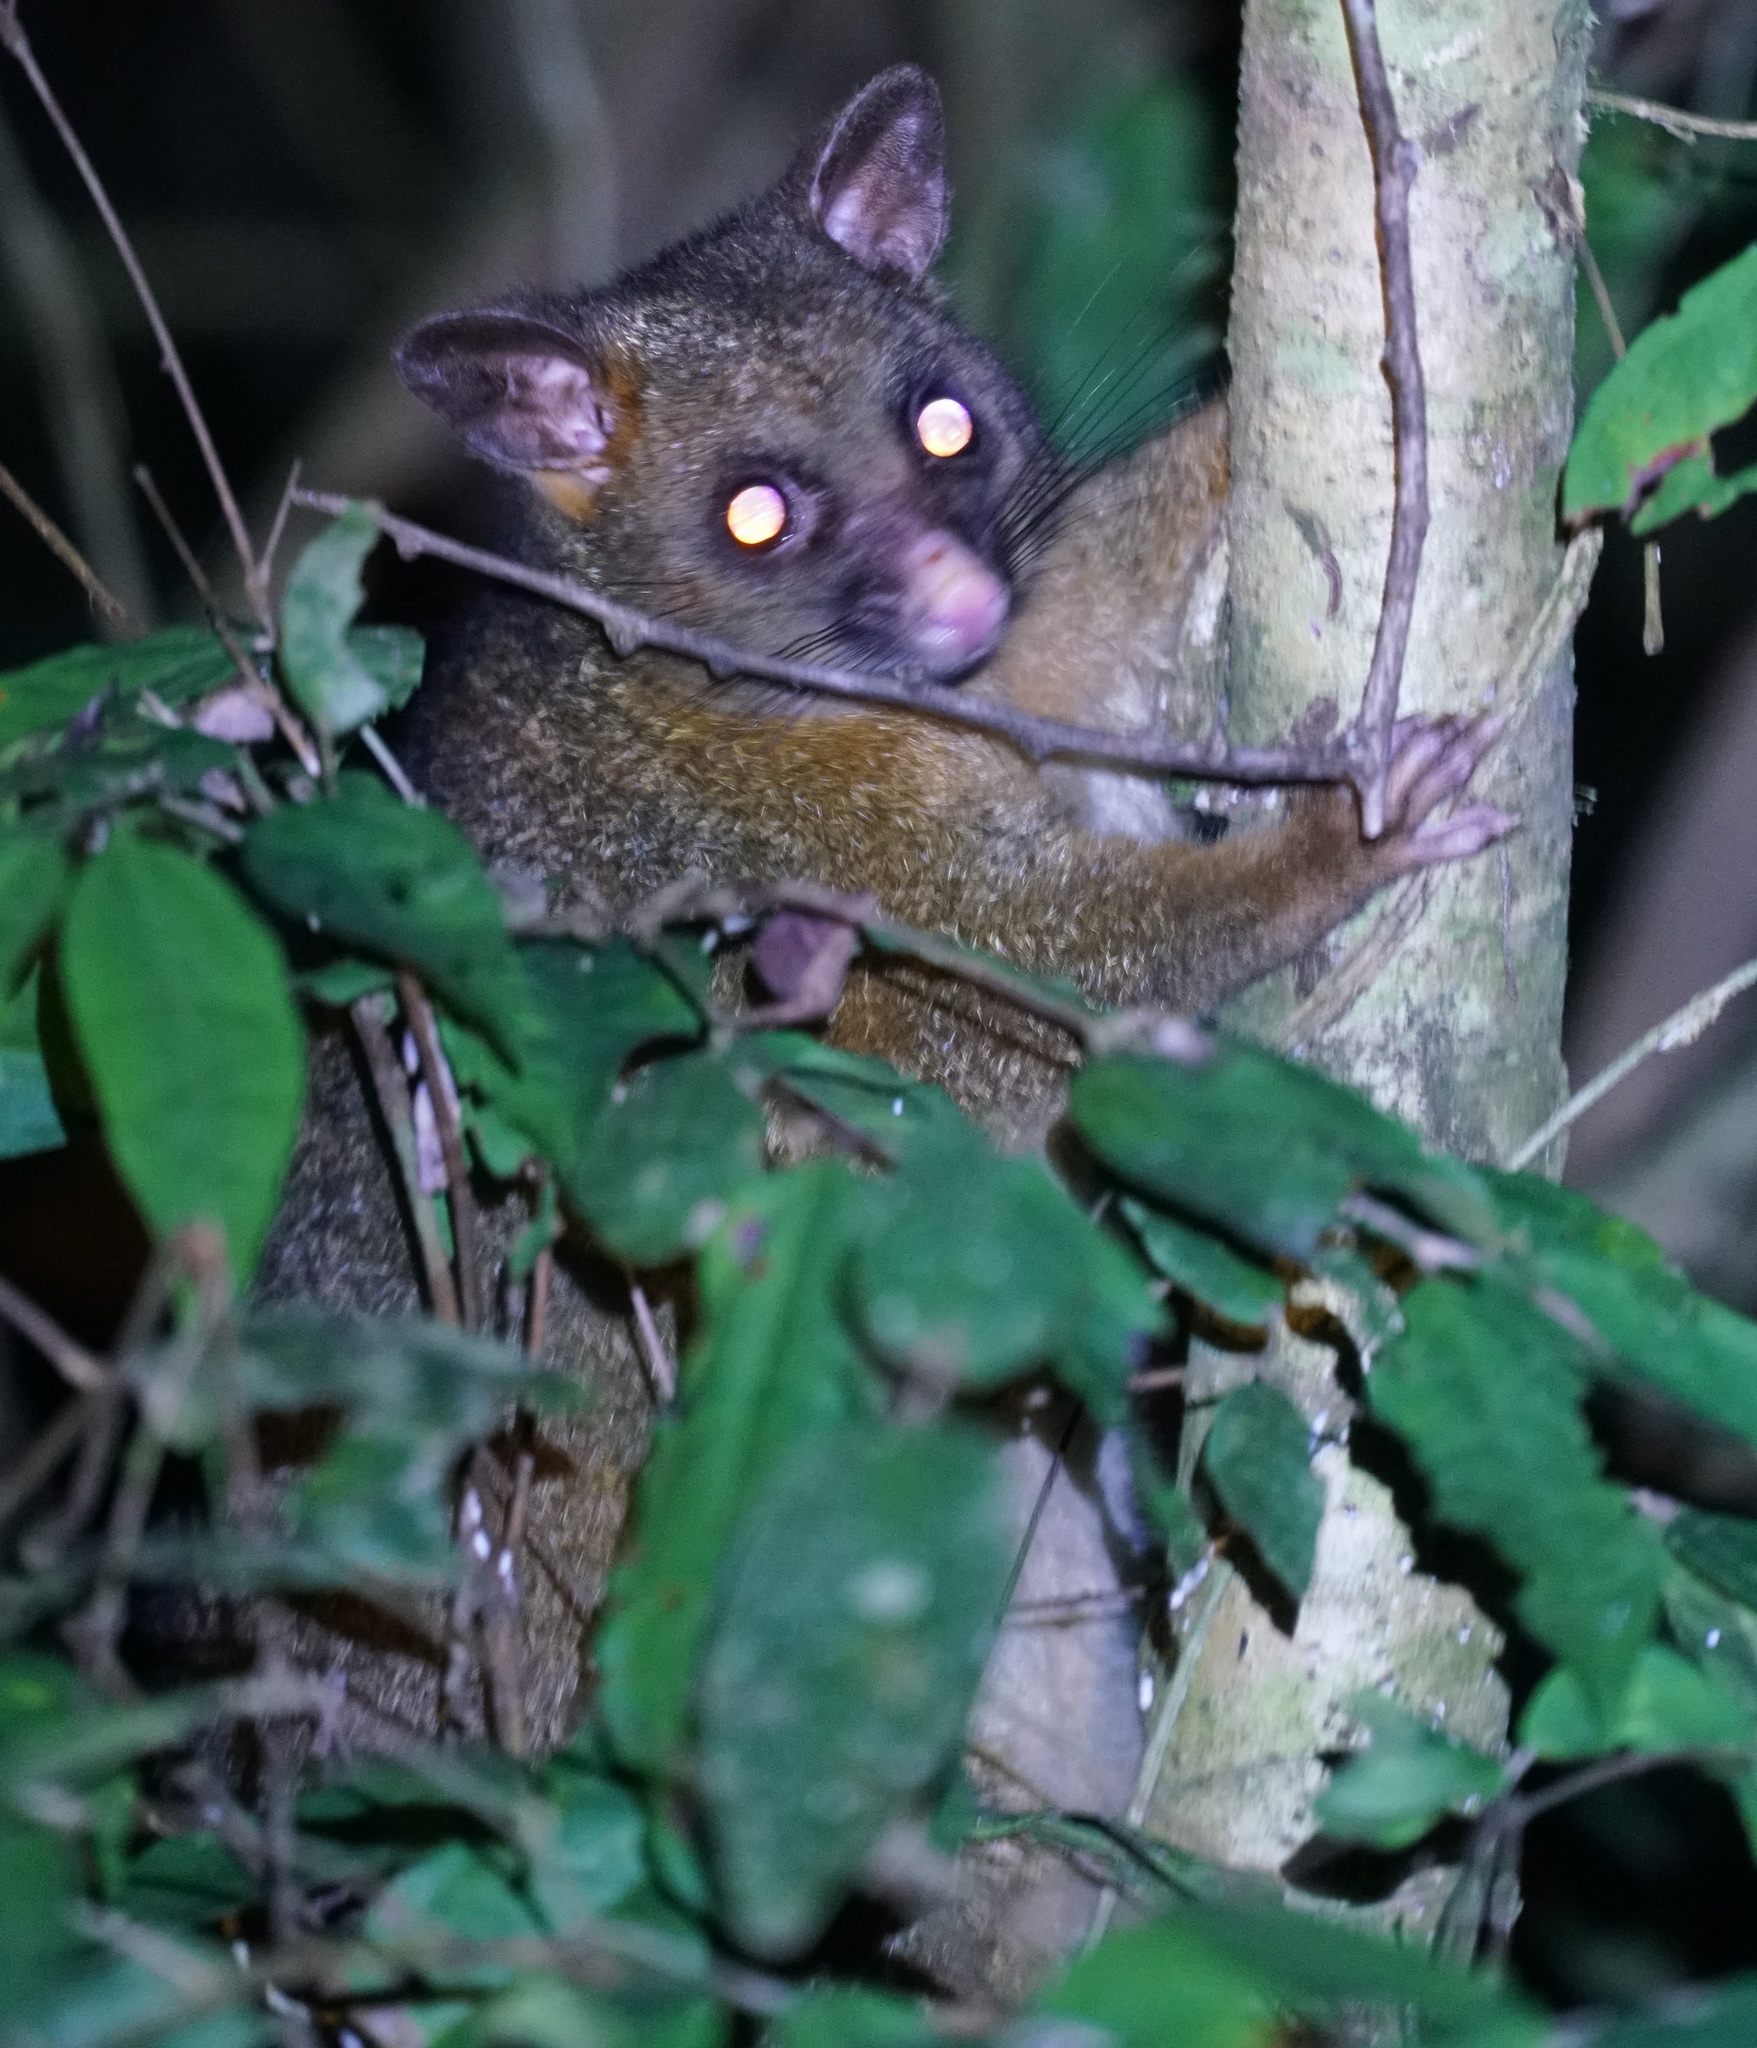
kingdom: Animalia
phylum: Chordata
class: Mammalia
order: Diprotodontia
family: Phalangeridae
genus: Trichosurus
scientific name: Trichosurus vulpecula
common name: Common brushtail
